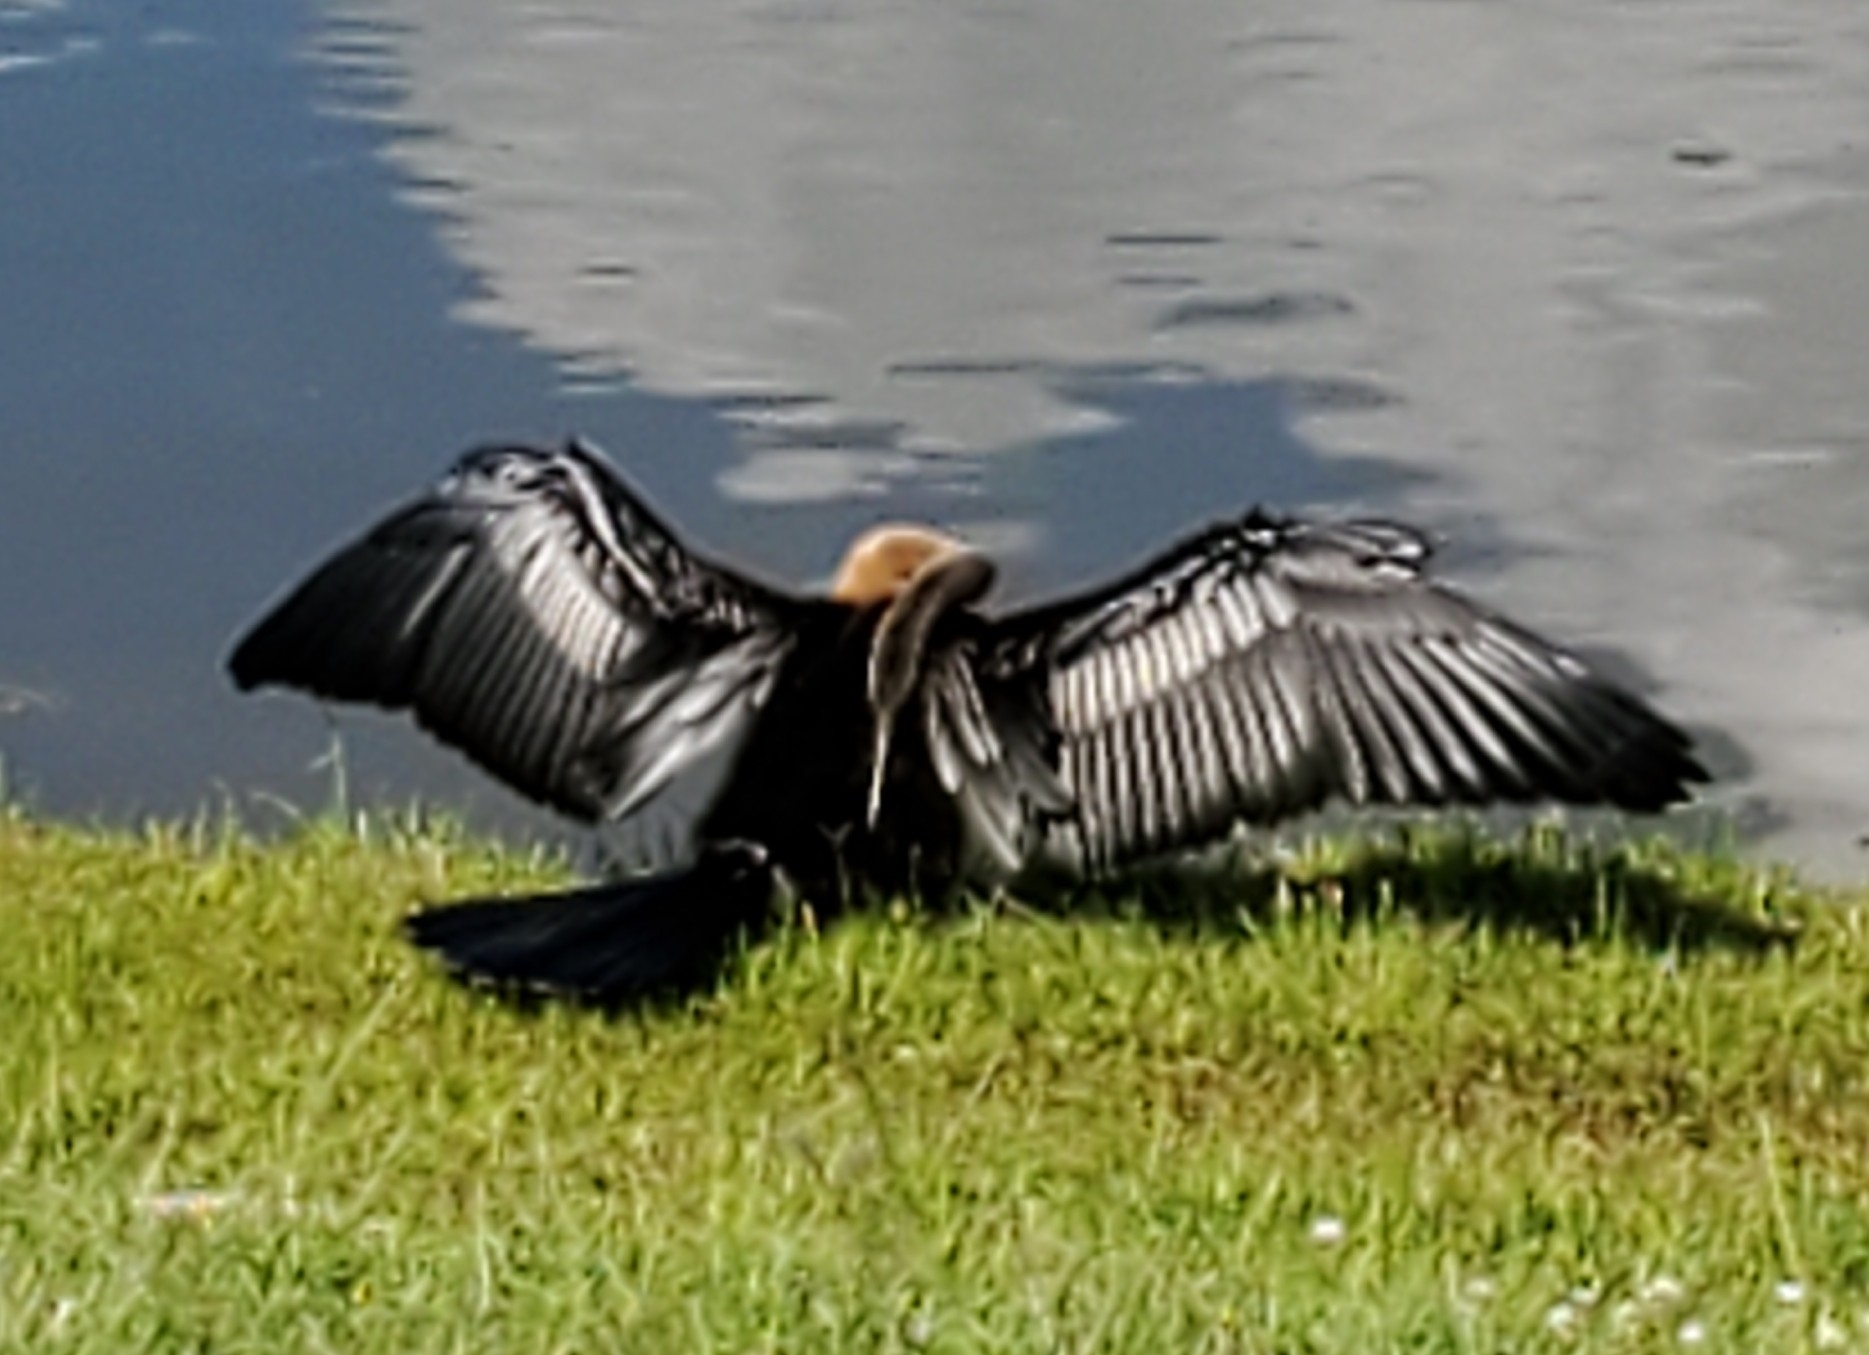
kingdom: Animalia
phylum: Chordata
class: Aves
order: Suliformes
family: Anhingidae
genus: Anhinga
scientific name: Anhinga anhinga
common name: Anhinga
